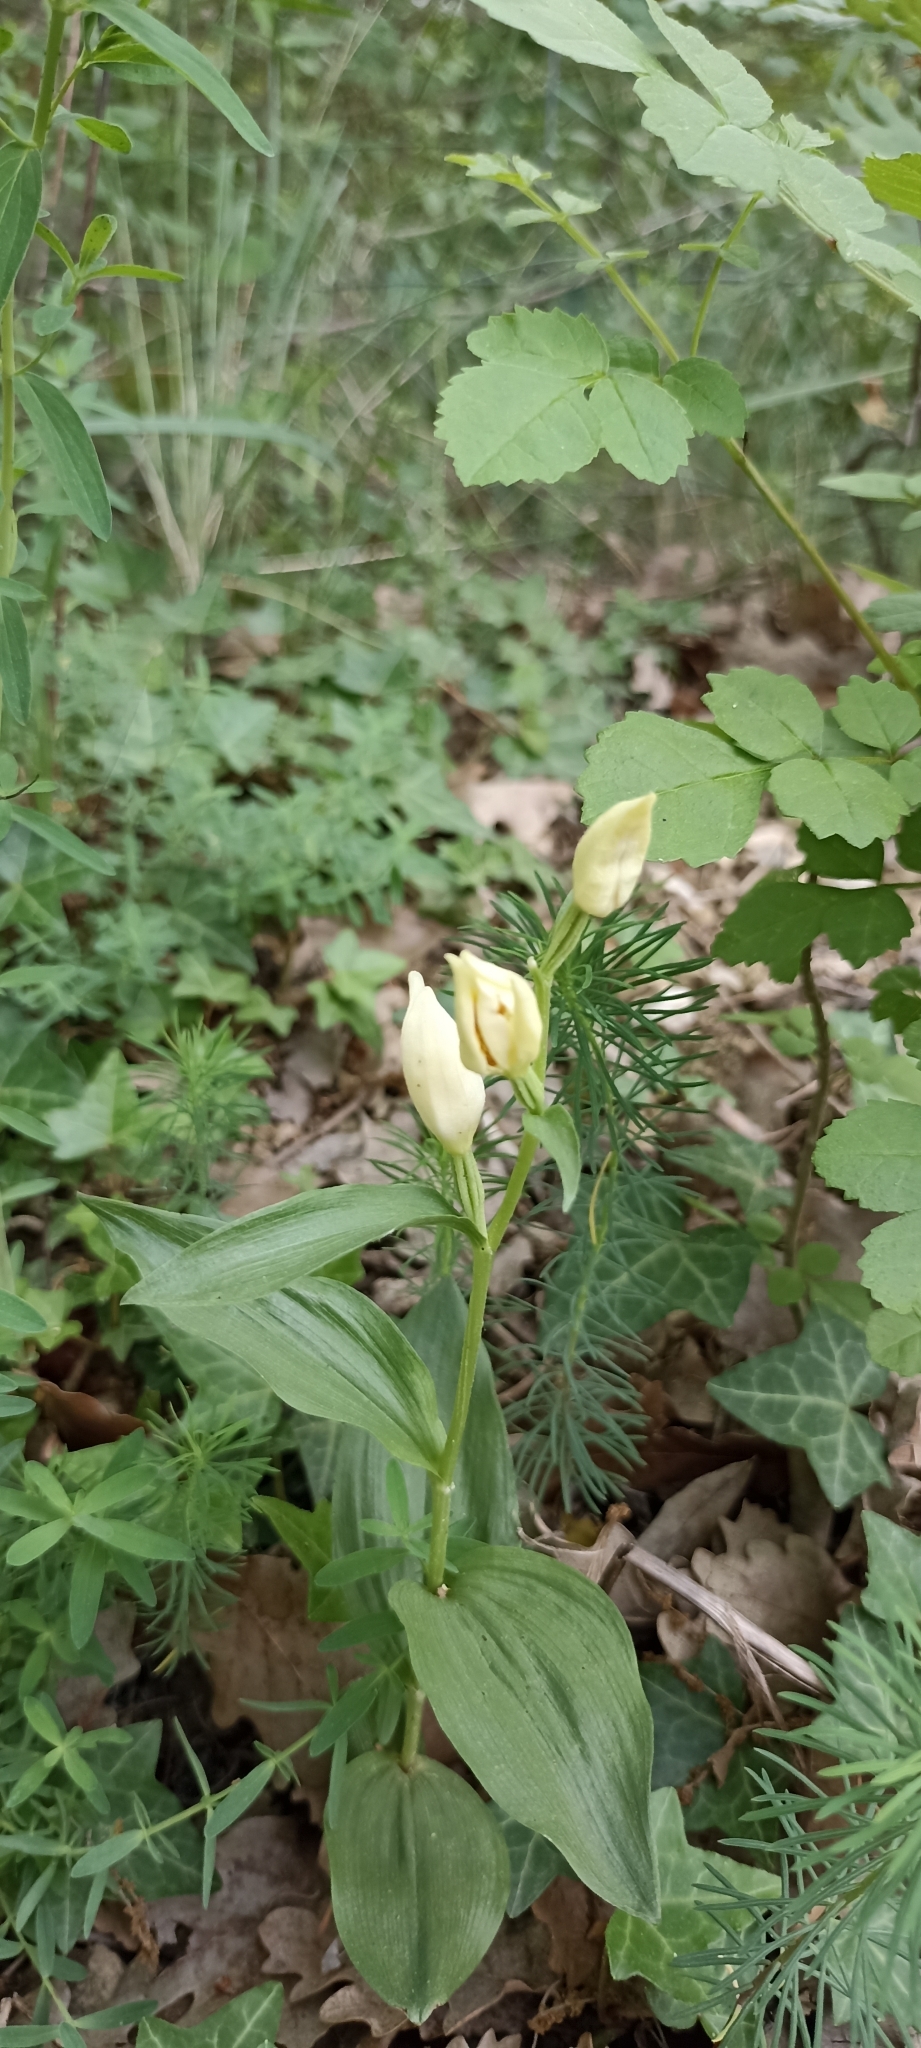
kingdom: Plantae
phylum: Tracheophyta
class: Liliopsida
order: Asparagales
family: Orchidaceae
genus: Cephalanthera
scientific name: Cephalanthera damasonium
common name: White helleborine
